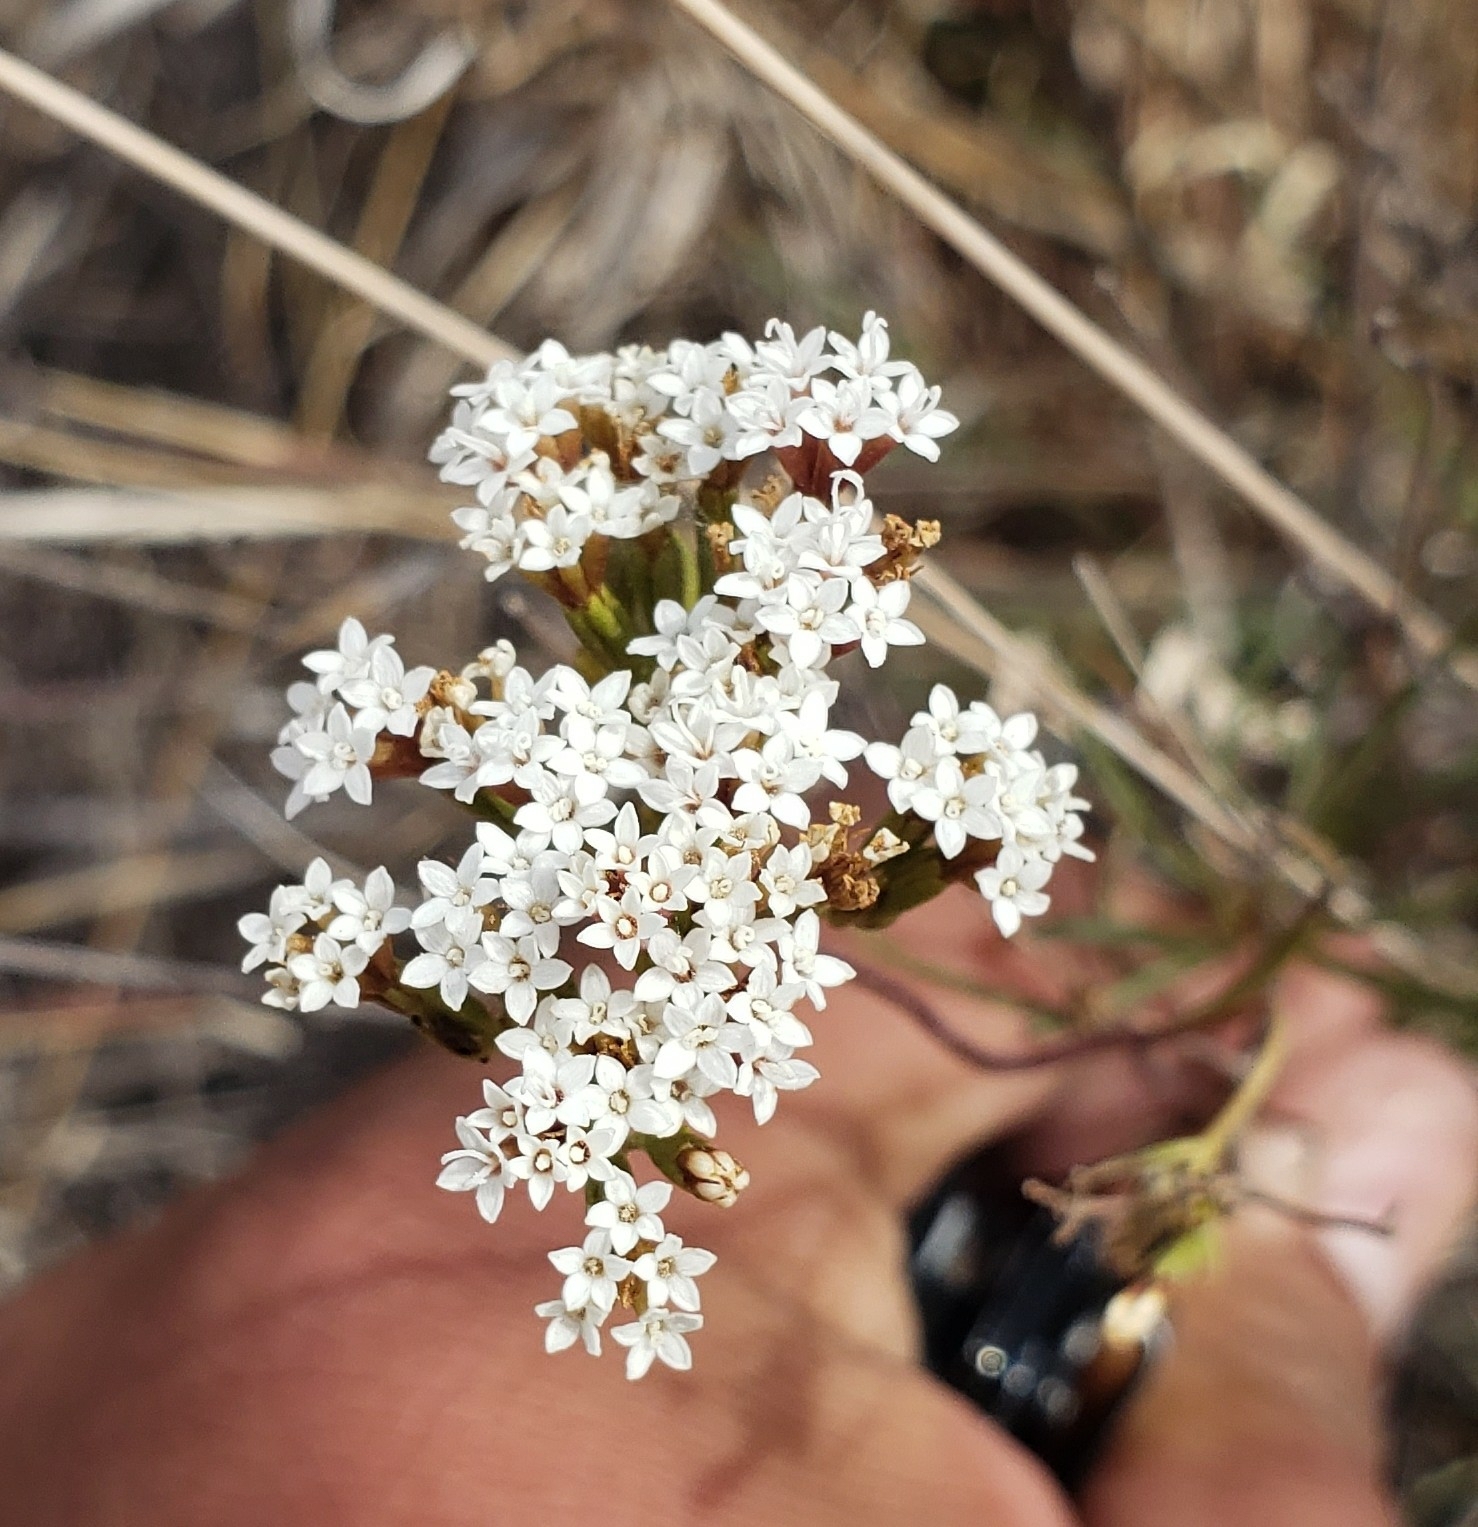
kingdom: Plantae
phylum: Tracheophyta
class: Magnoliopsida
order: Asterales
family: Asteraceae
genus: Stevia
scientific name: Stevia salicifolia
